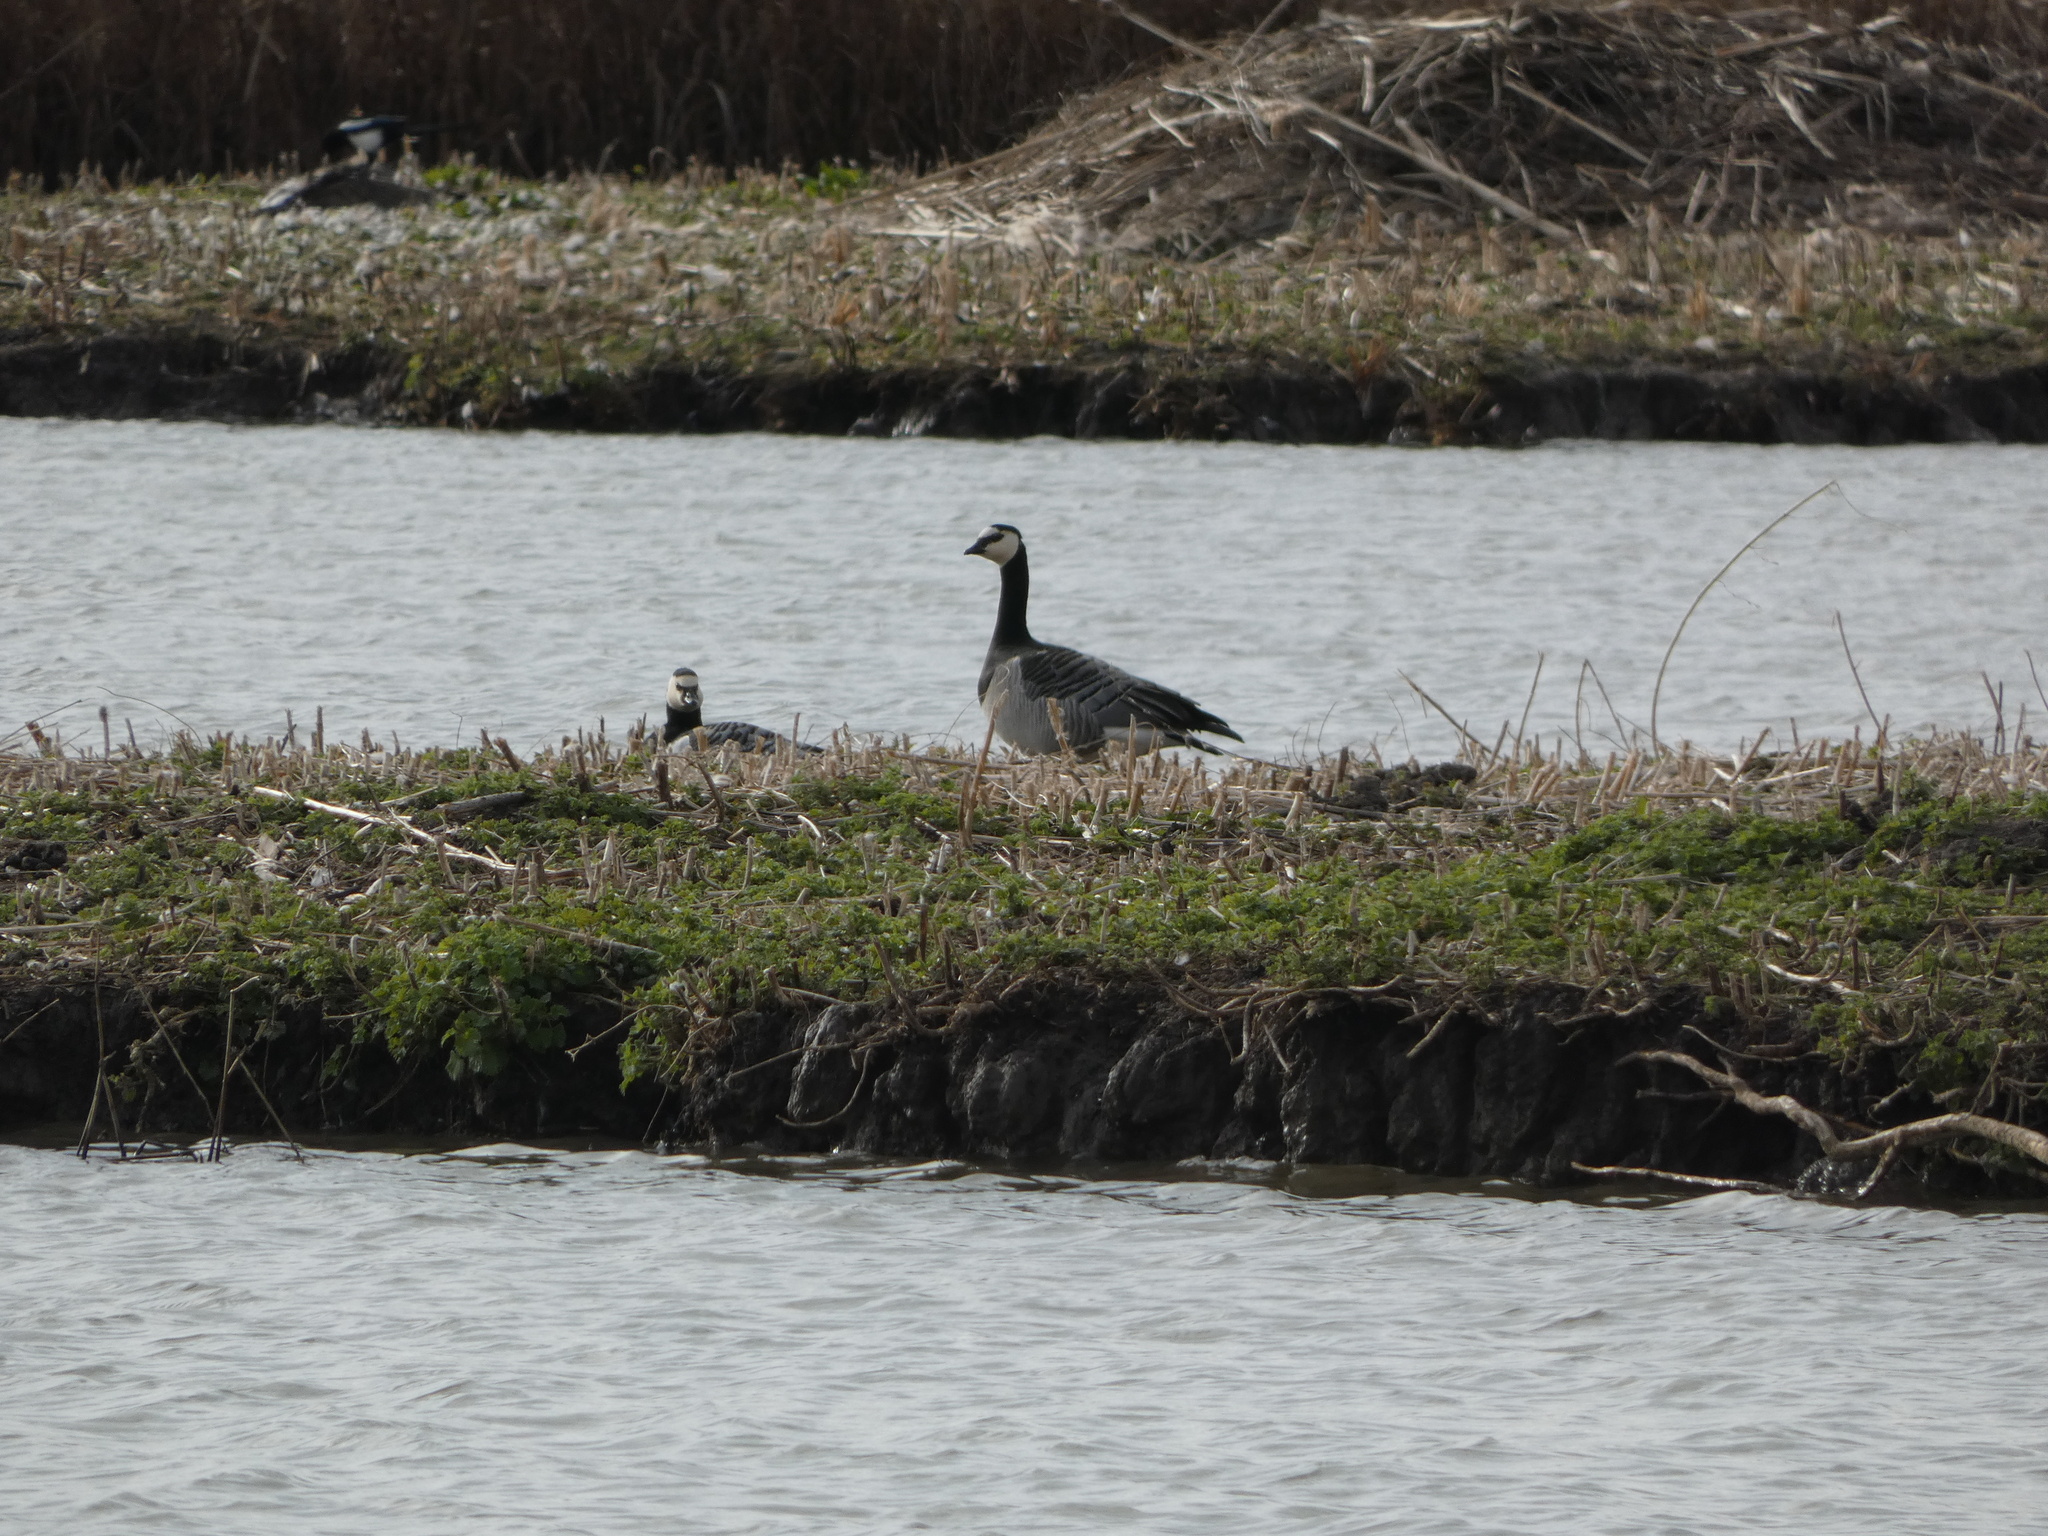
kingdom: Animalia
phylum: Chordata
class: Aves
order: Anseriformes
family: Anatidae
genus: Branta
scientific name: Branta leucopsis
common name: Barnacle goose
